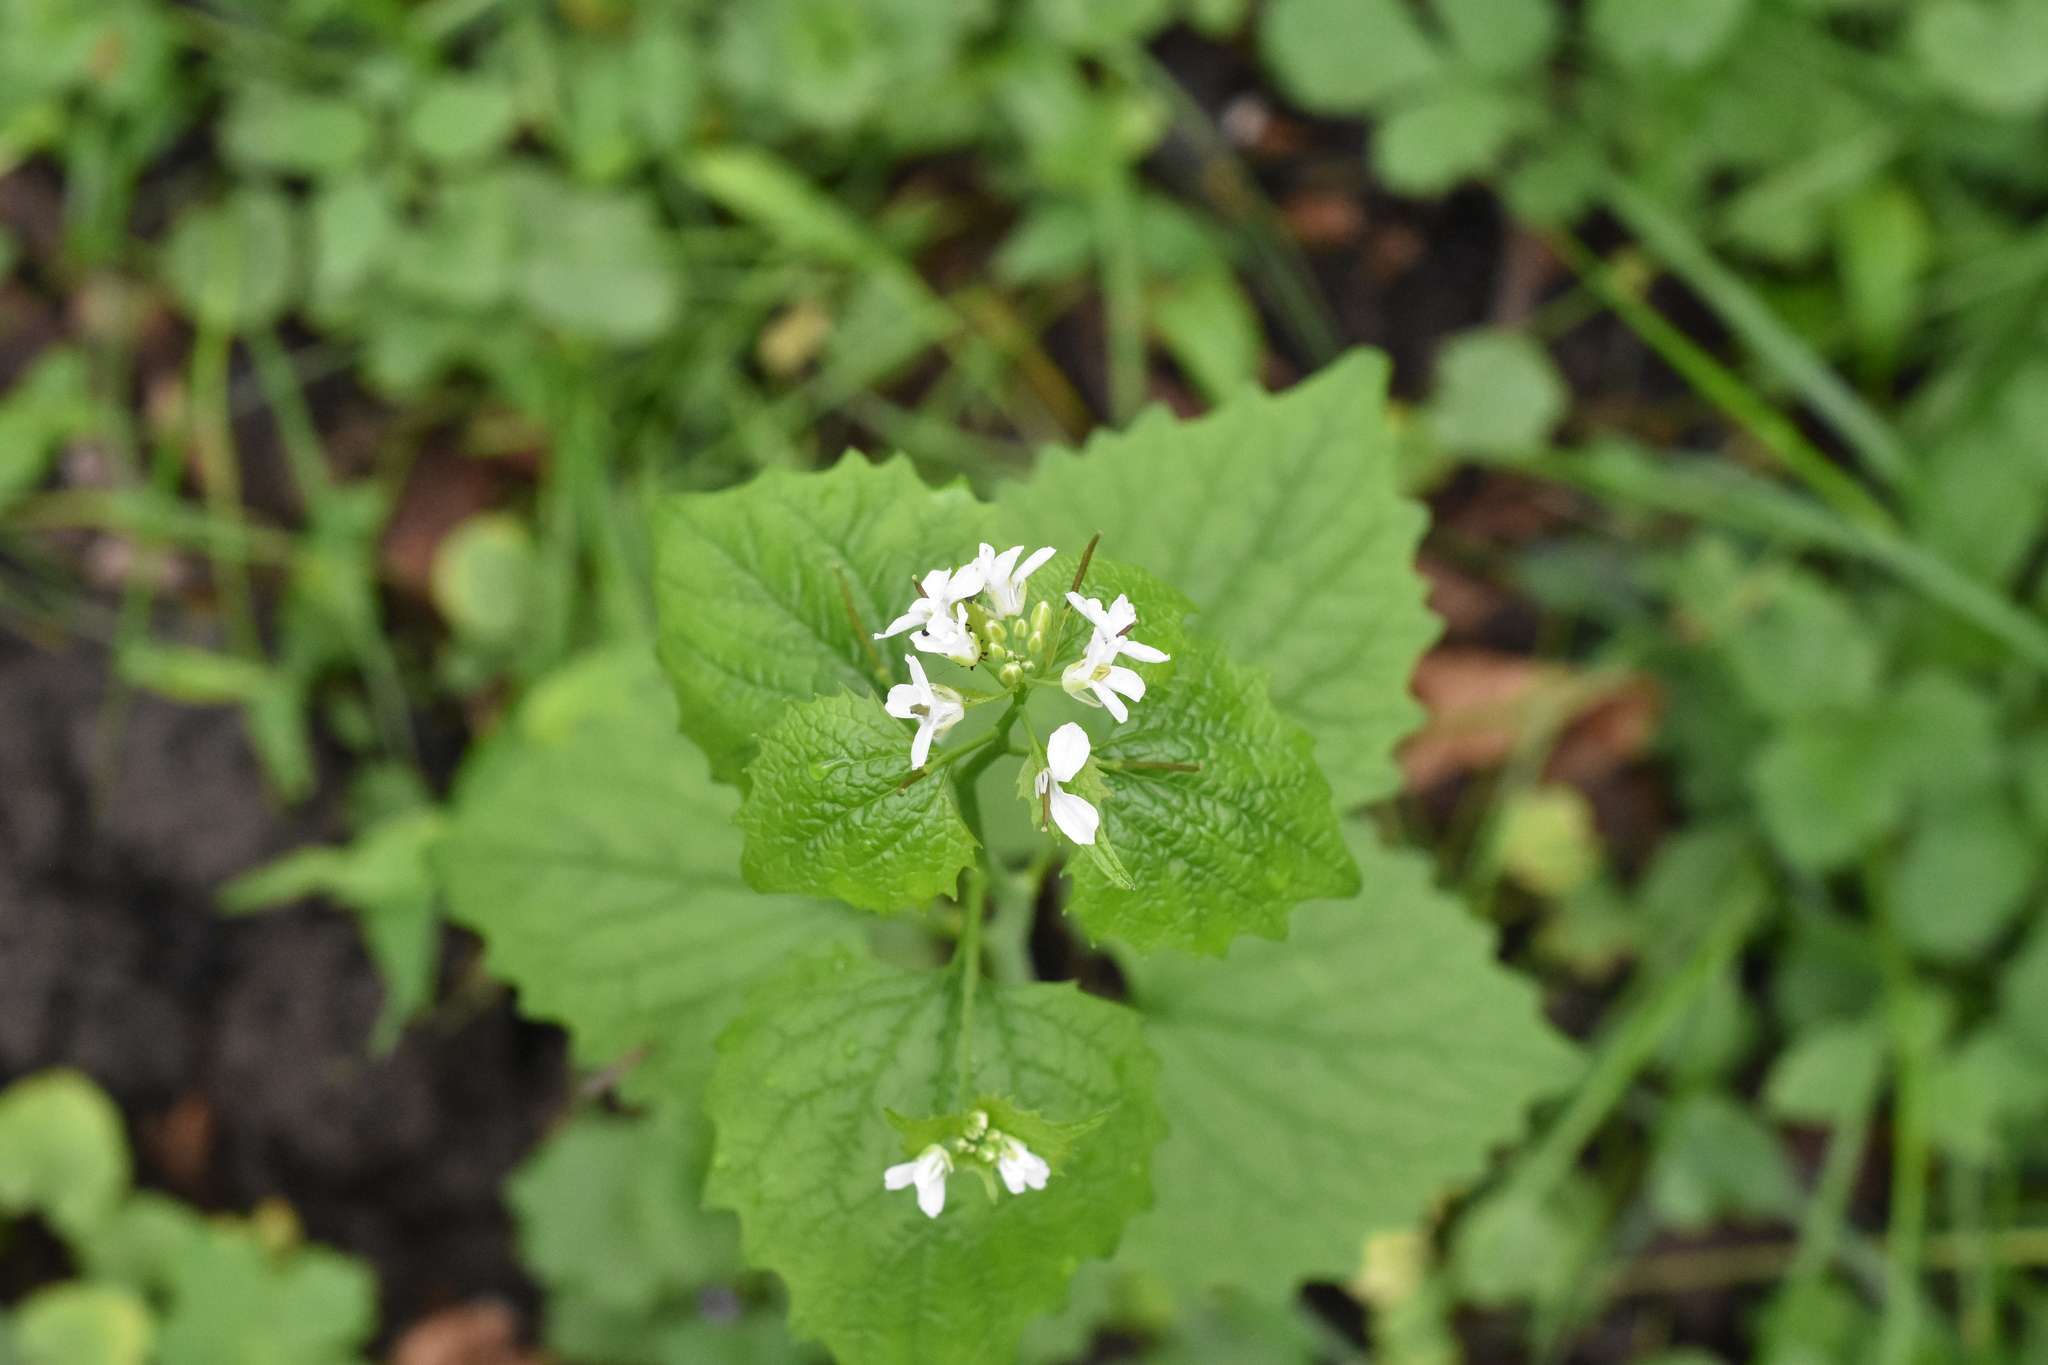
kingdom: Plantae
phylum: Tracheophyta
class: Magnoliopsida
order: Brassicales
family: Brassicaceae
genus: Alliaria
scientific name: Alliaria petiolata
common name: Garlic mustard
